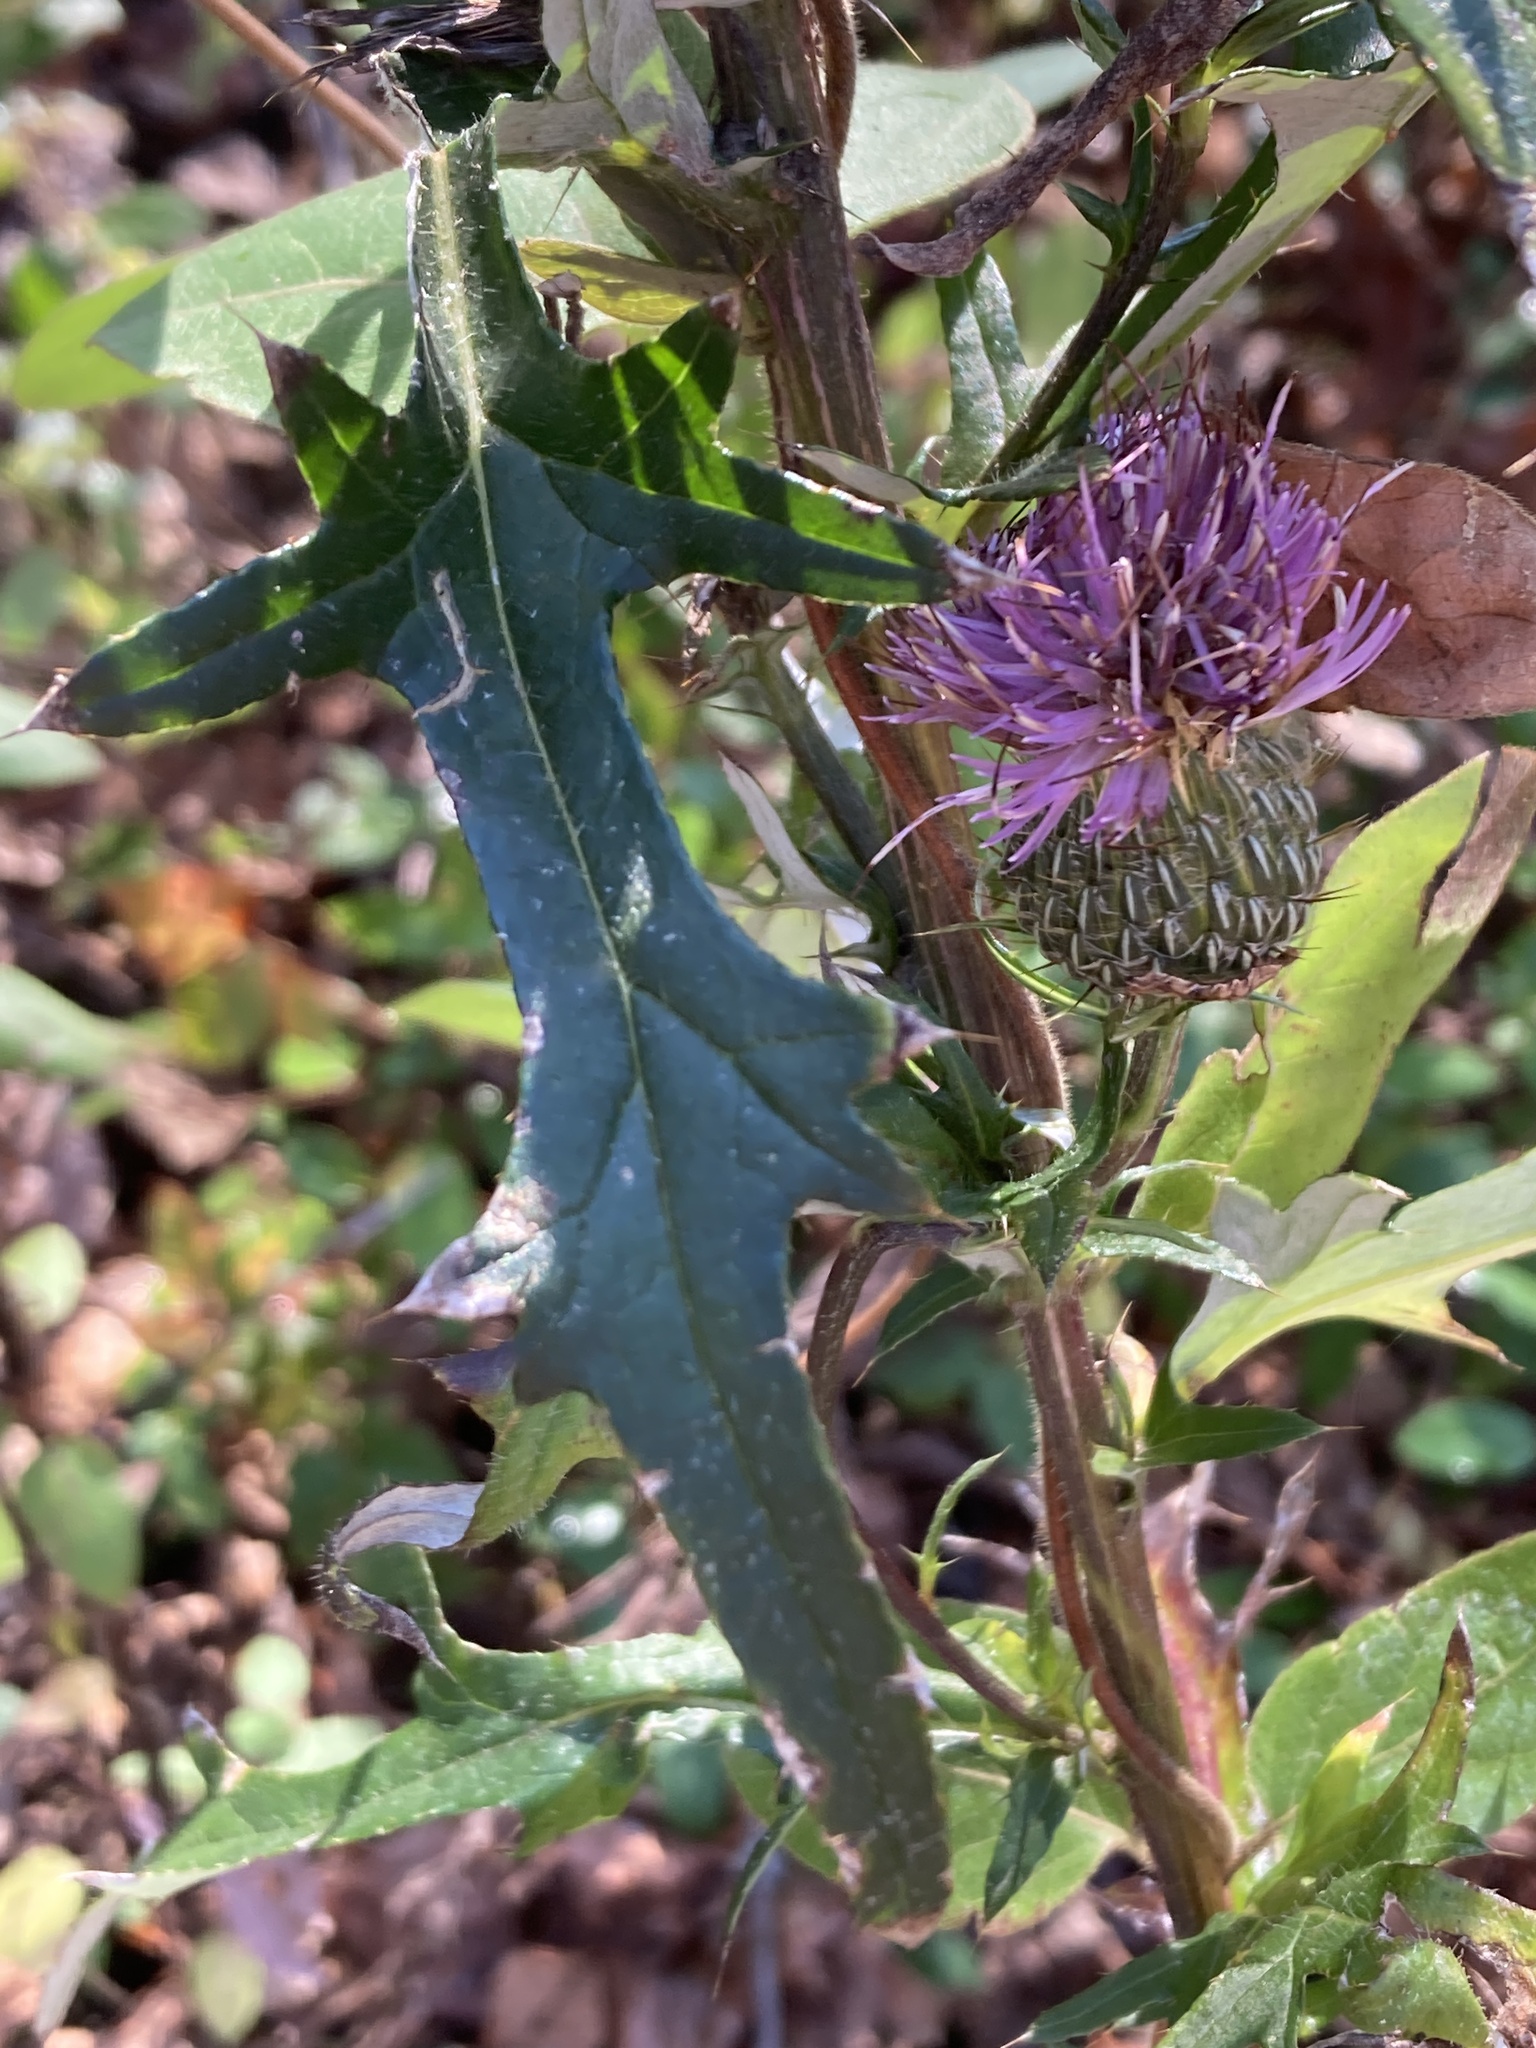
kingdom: Plantae
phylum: Tracheophyta
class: Magnoliopsida
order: Asterales
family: Asteraceae
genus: Cirsium
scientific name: Cirsium discolor
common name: Field thistle
